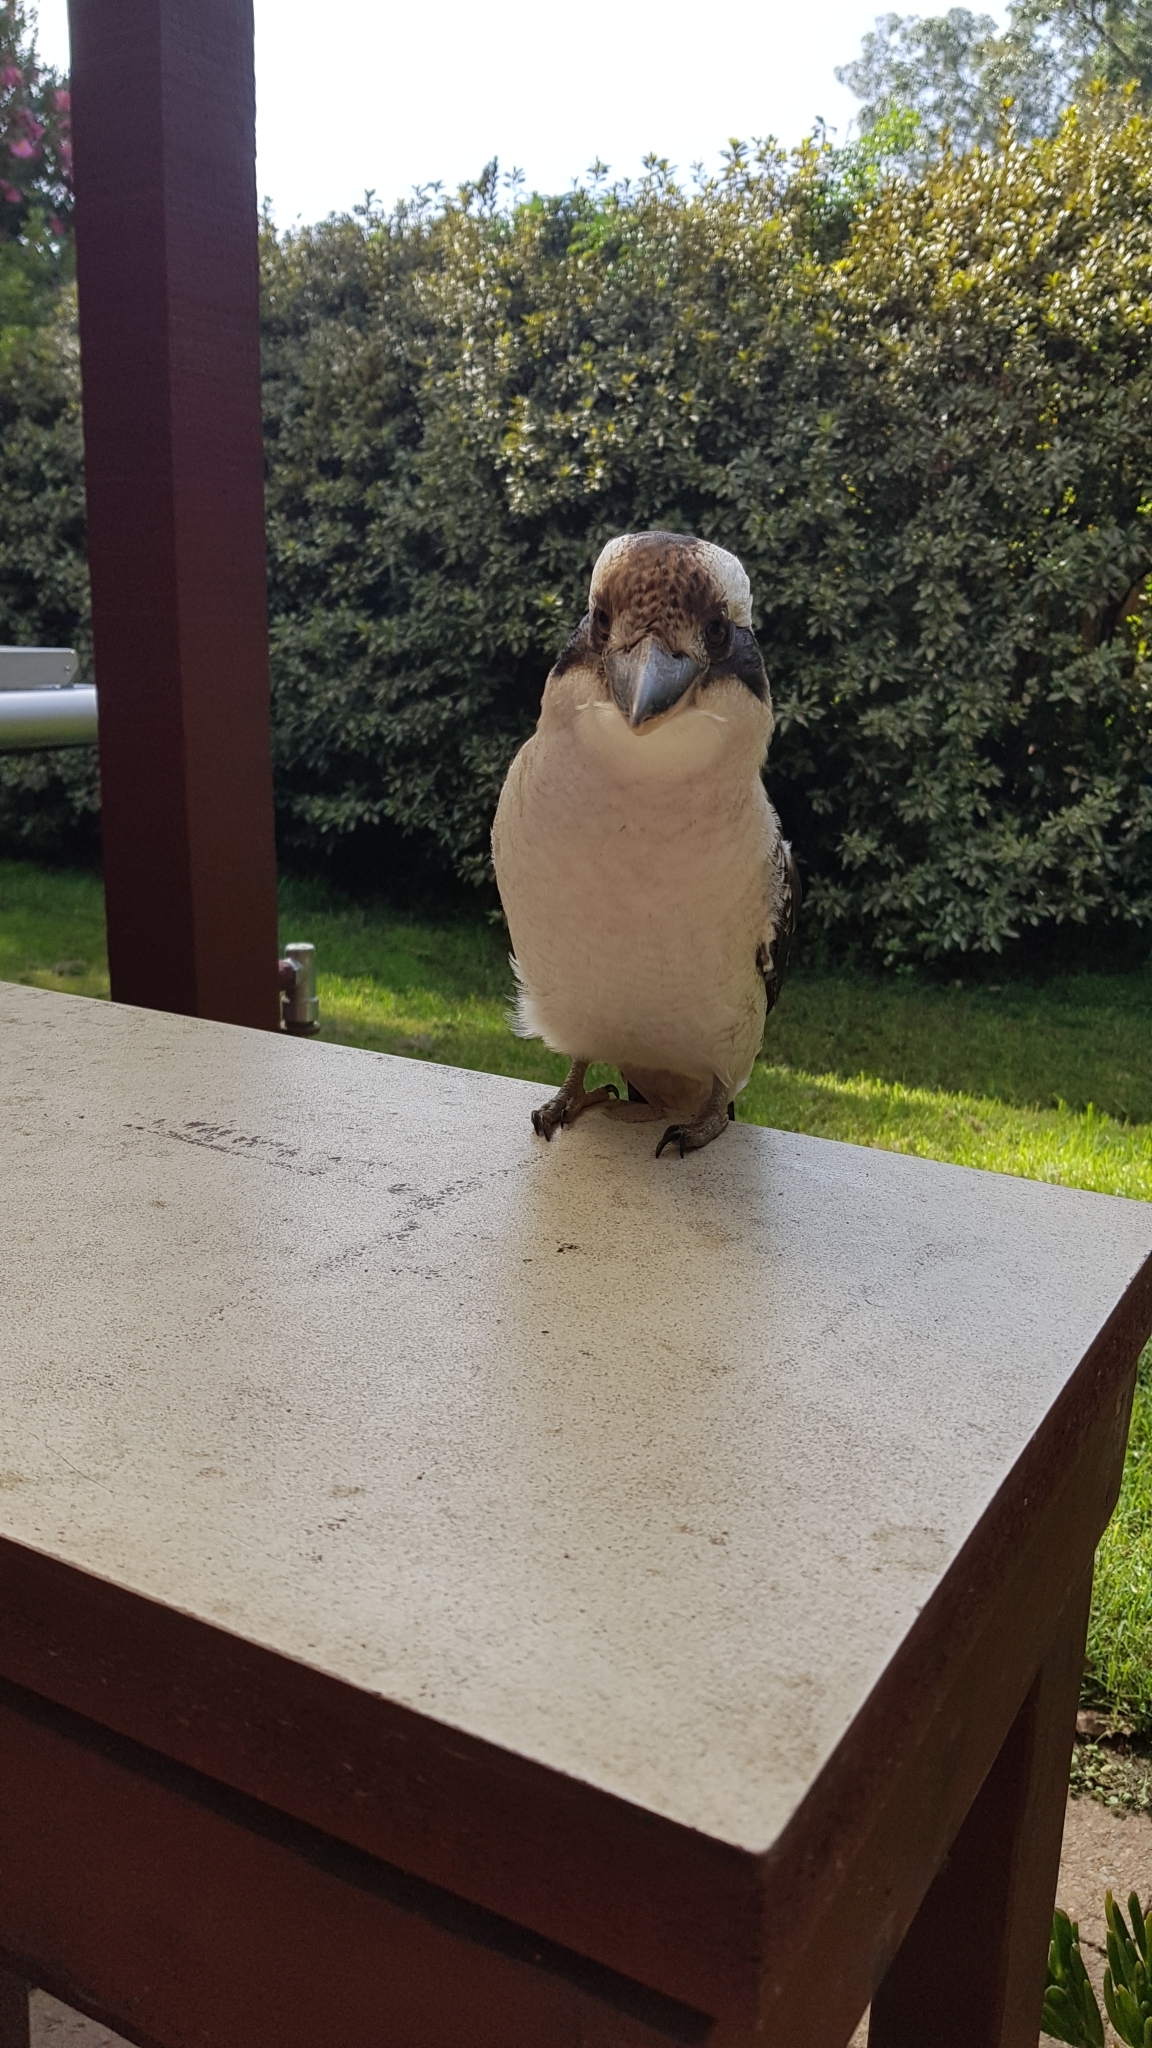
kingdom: Animalia
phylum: Chordata
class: Aves
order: Coraciiformes
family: Alcedinidae
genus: Dacelo
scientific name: Dacelo novaeguineae
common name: Laughing kookaburra
